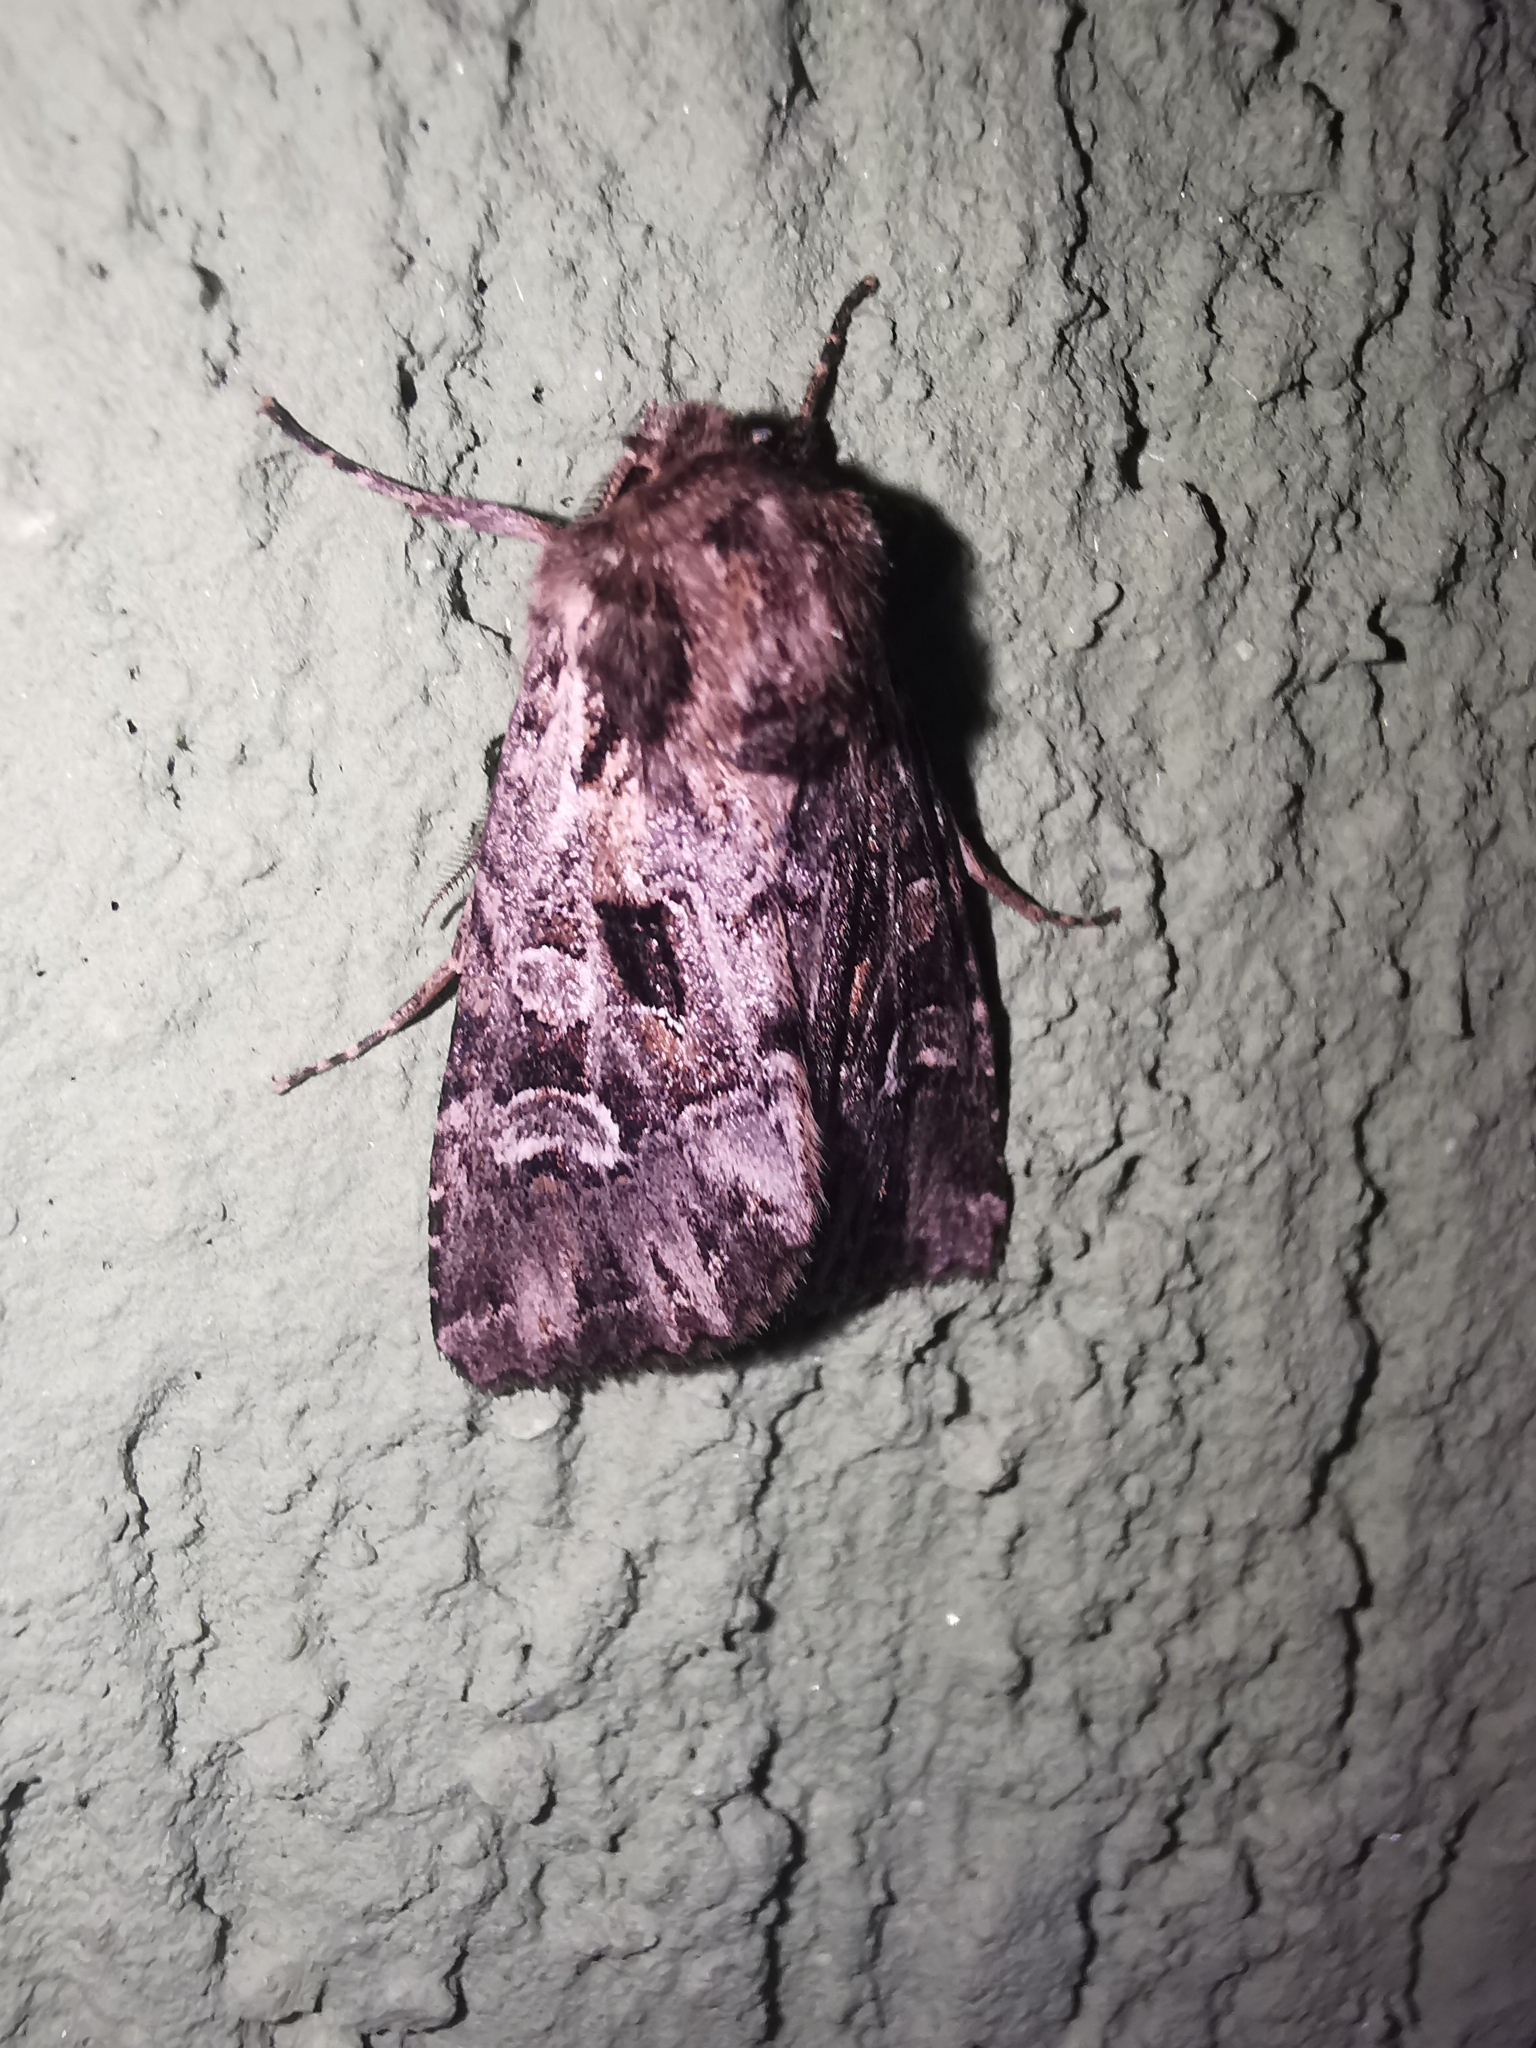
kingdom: Animalia
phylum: Arthropoda
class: Insecta
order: Lepidoptera
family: Noctuidae
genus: Pachetra
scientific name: Pachetra sagittigera
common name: Feathered ear
